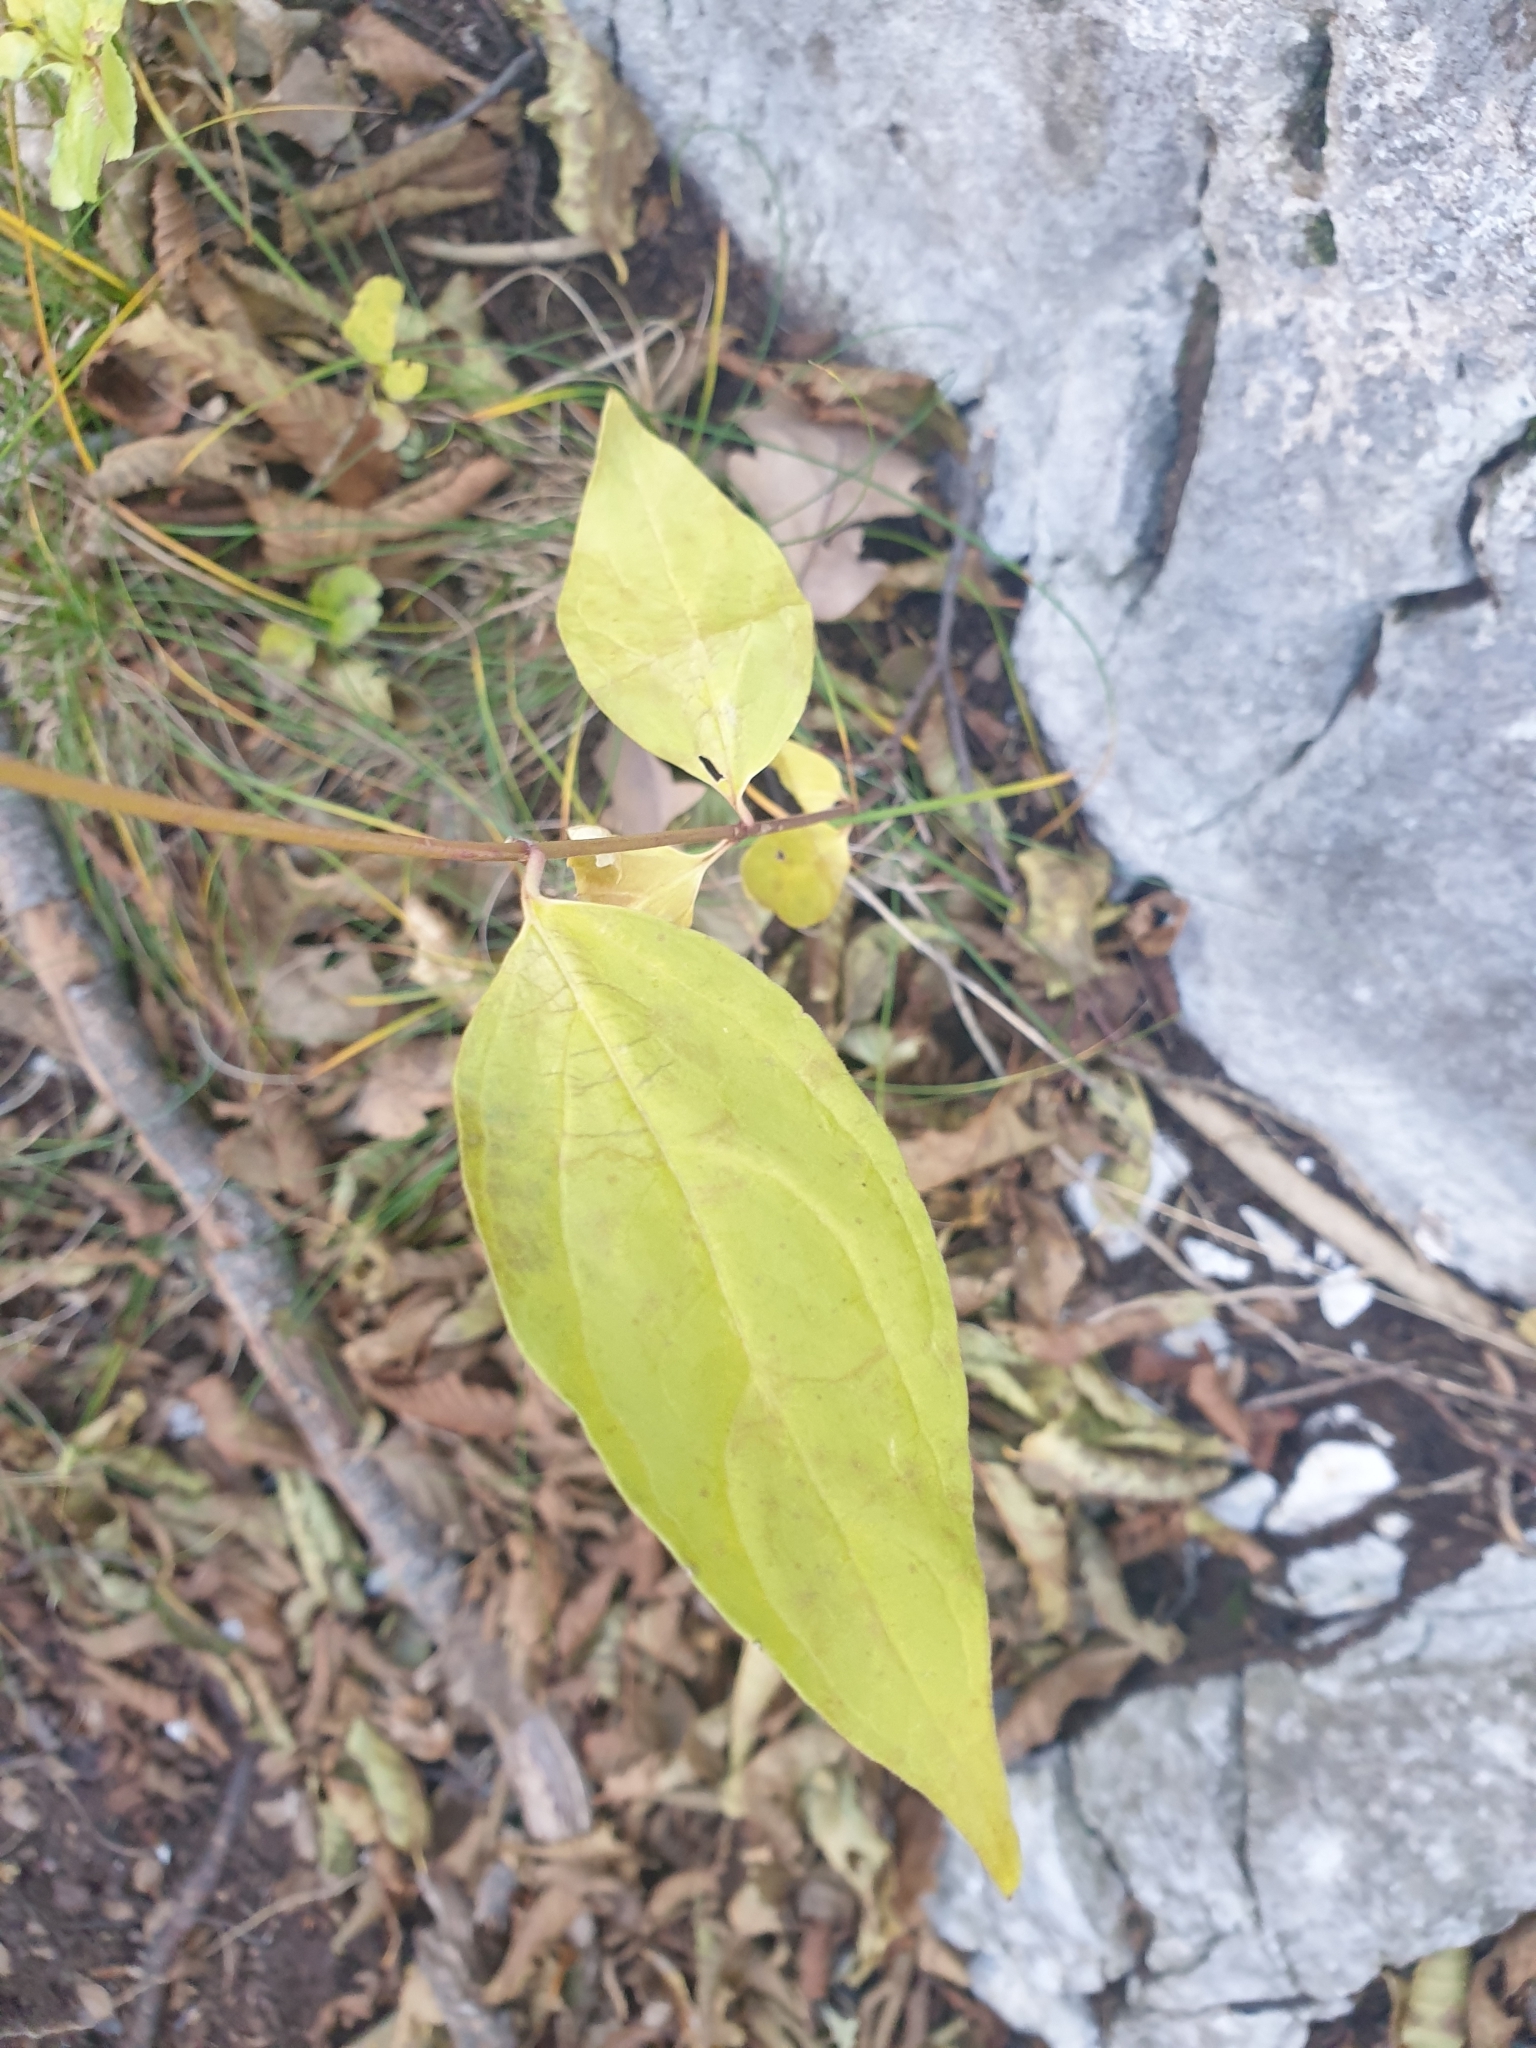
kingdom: Plantae
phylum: Tracheophyta
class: Magnoliopsida
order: Gentianales
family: Apocynaceae
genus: Vincetoxicum
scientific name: Vincetoxicum hirundinaria
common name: White swallowwort
